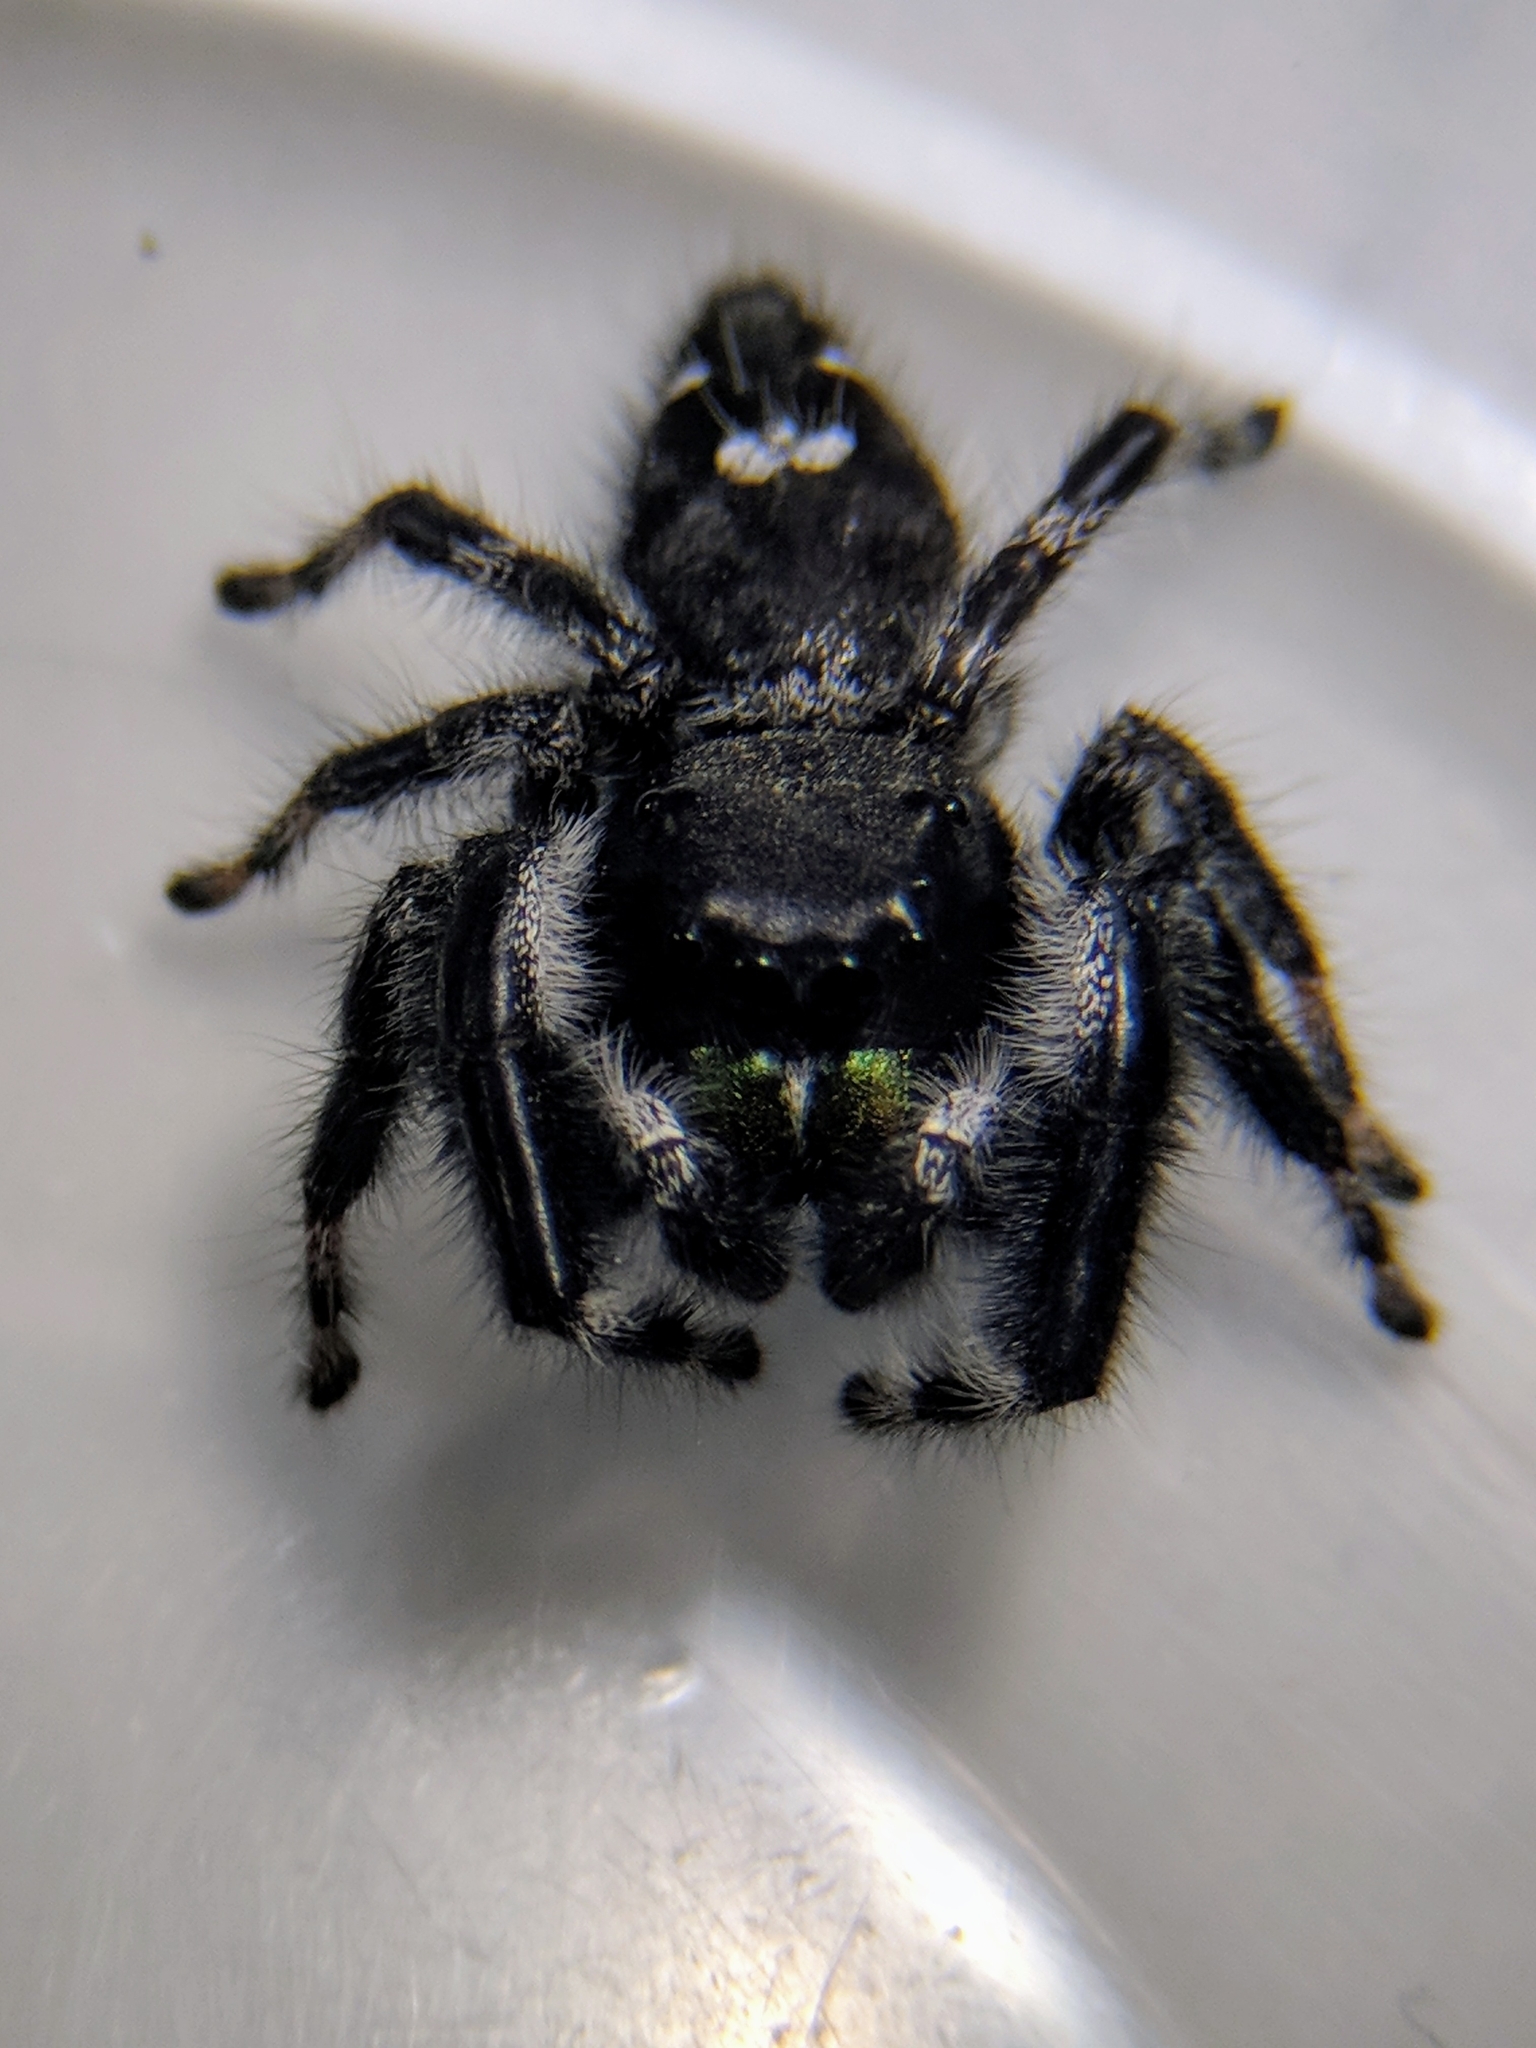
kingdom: Animalia
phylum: Arthropoda
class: Arachnida
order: Araneae
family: Salticidae
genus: Phidippus
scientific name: Phidippus audax
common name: Bold jumper
